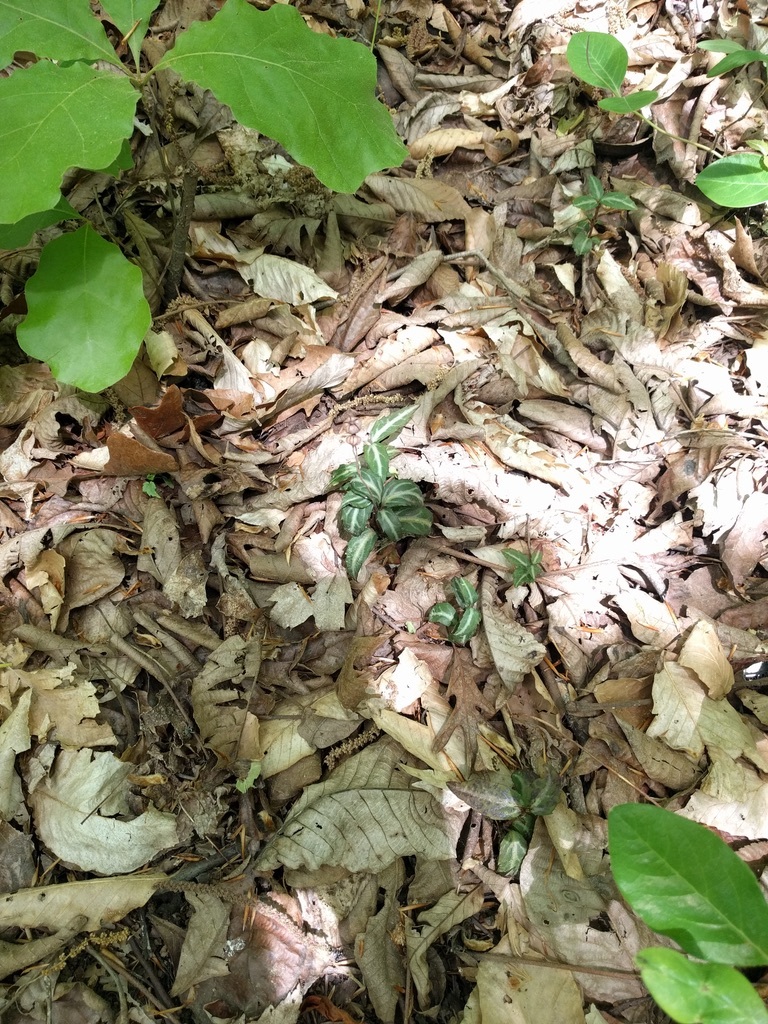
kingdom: Plantae
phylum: Tracheophyta
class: Magnoliopsida
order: Ericales
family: Ericaceae
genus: Chimaphila
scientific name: Chimaphila maculata
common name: Spotted pipsissewa
